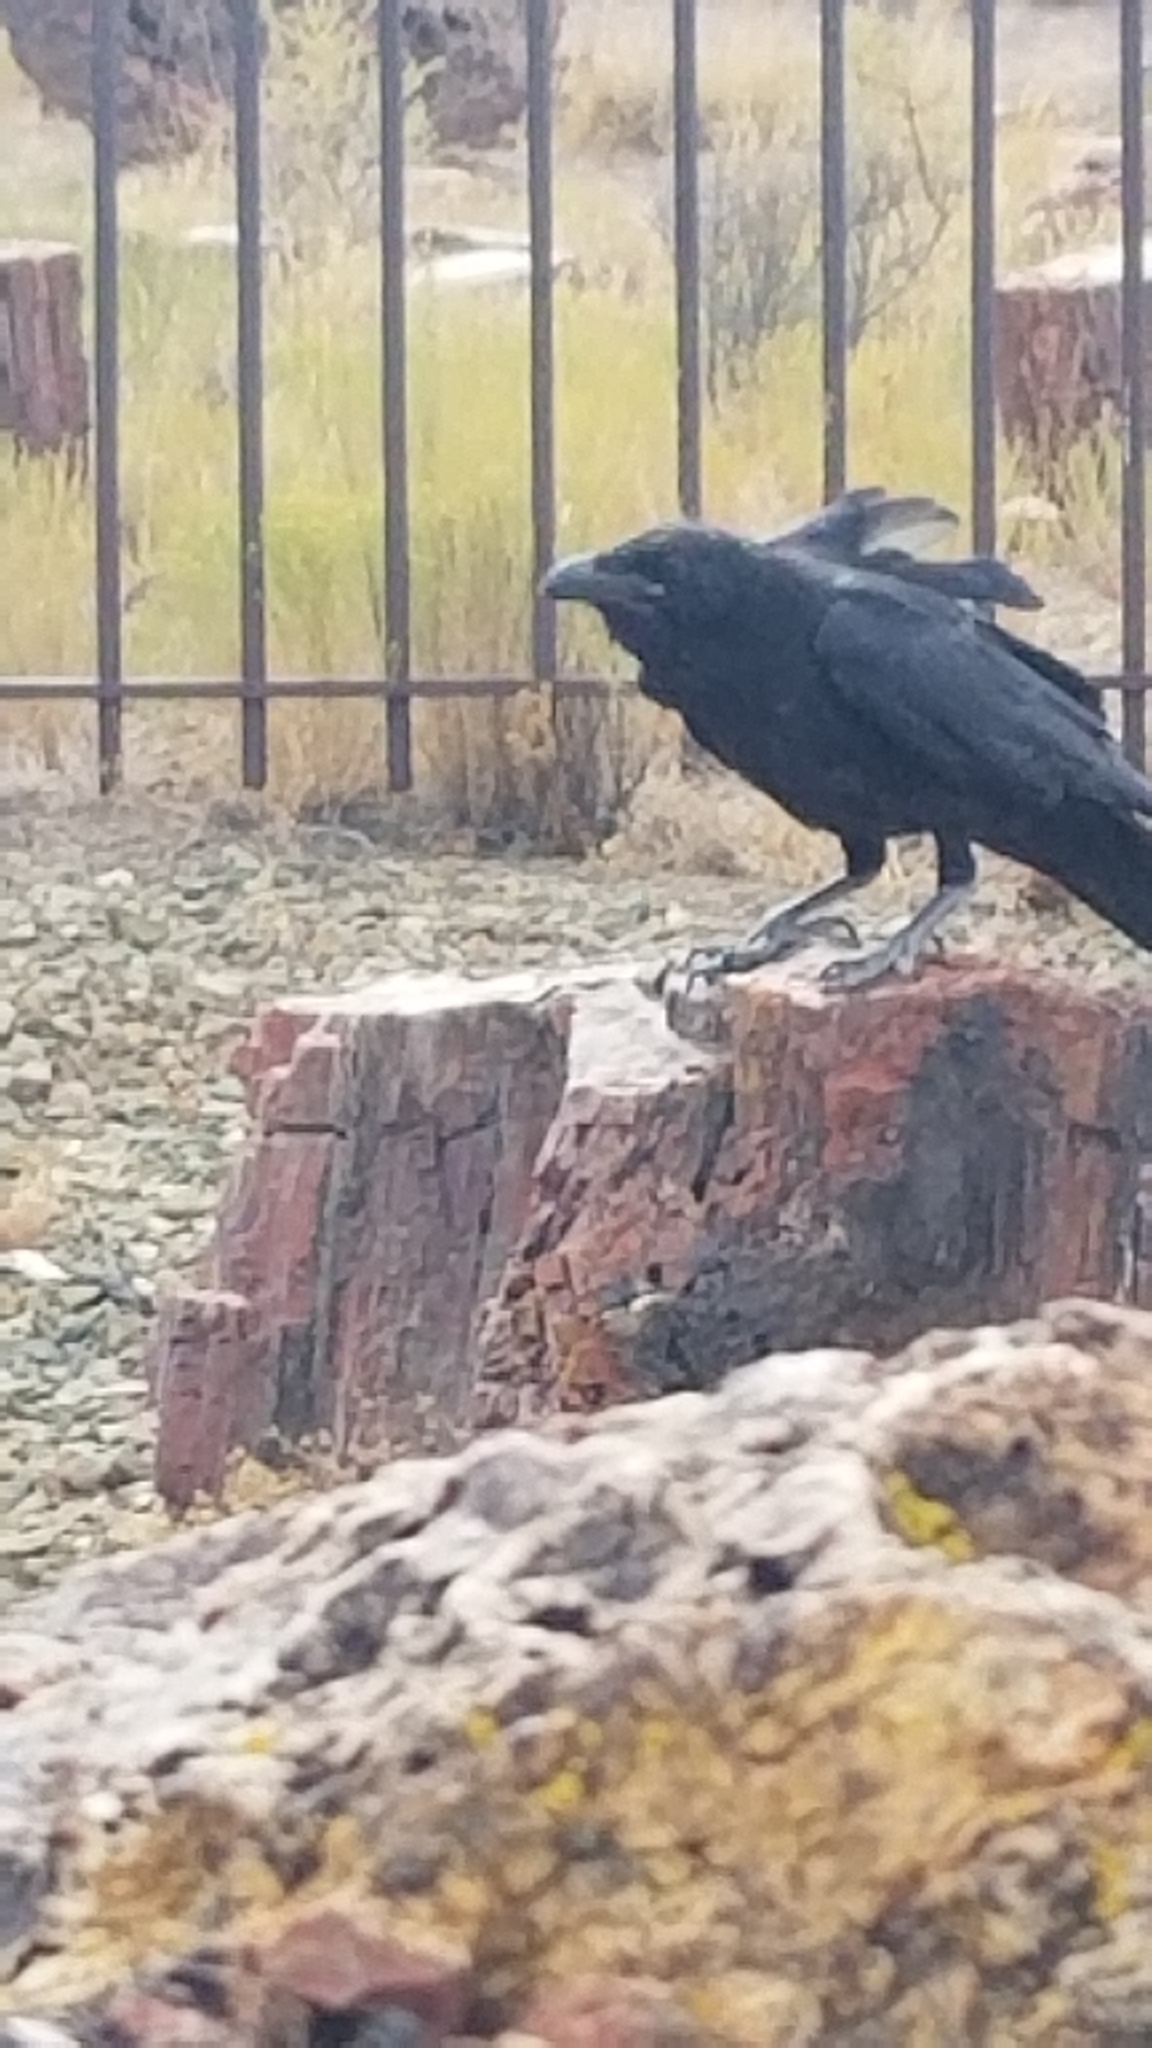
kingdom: Animalia
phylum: Chordata
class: Aves
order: Passeriformes
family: Corvidae
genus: Corvus
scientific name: Corvus corax
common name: Common raven
